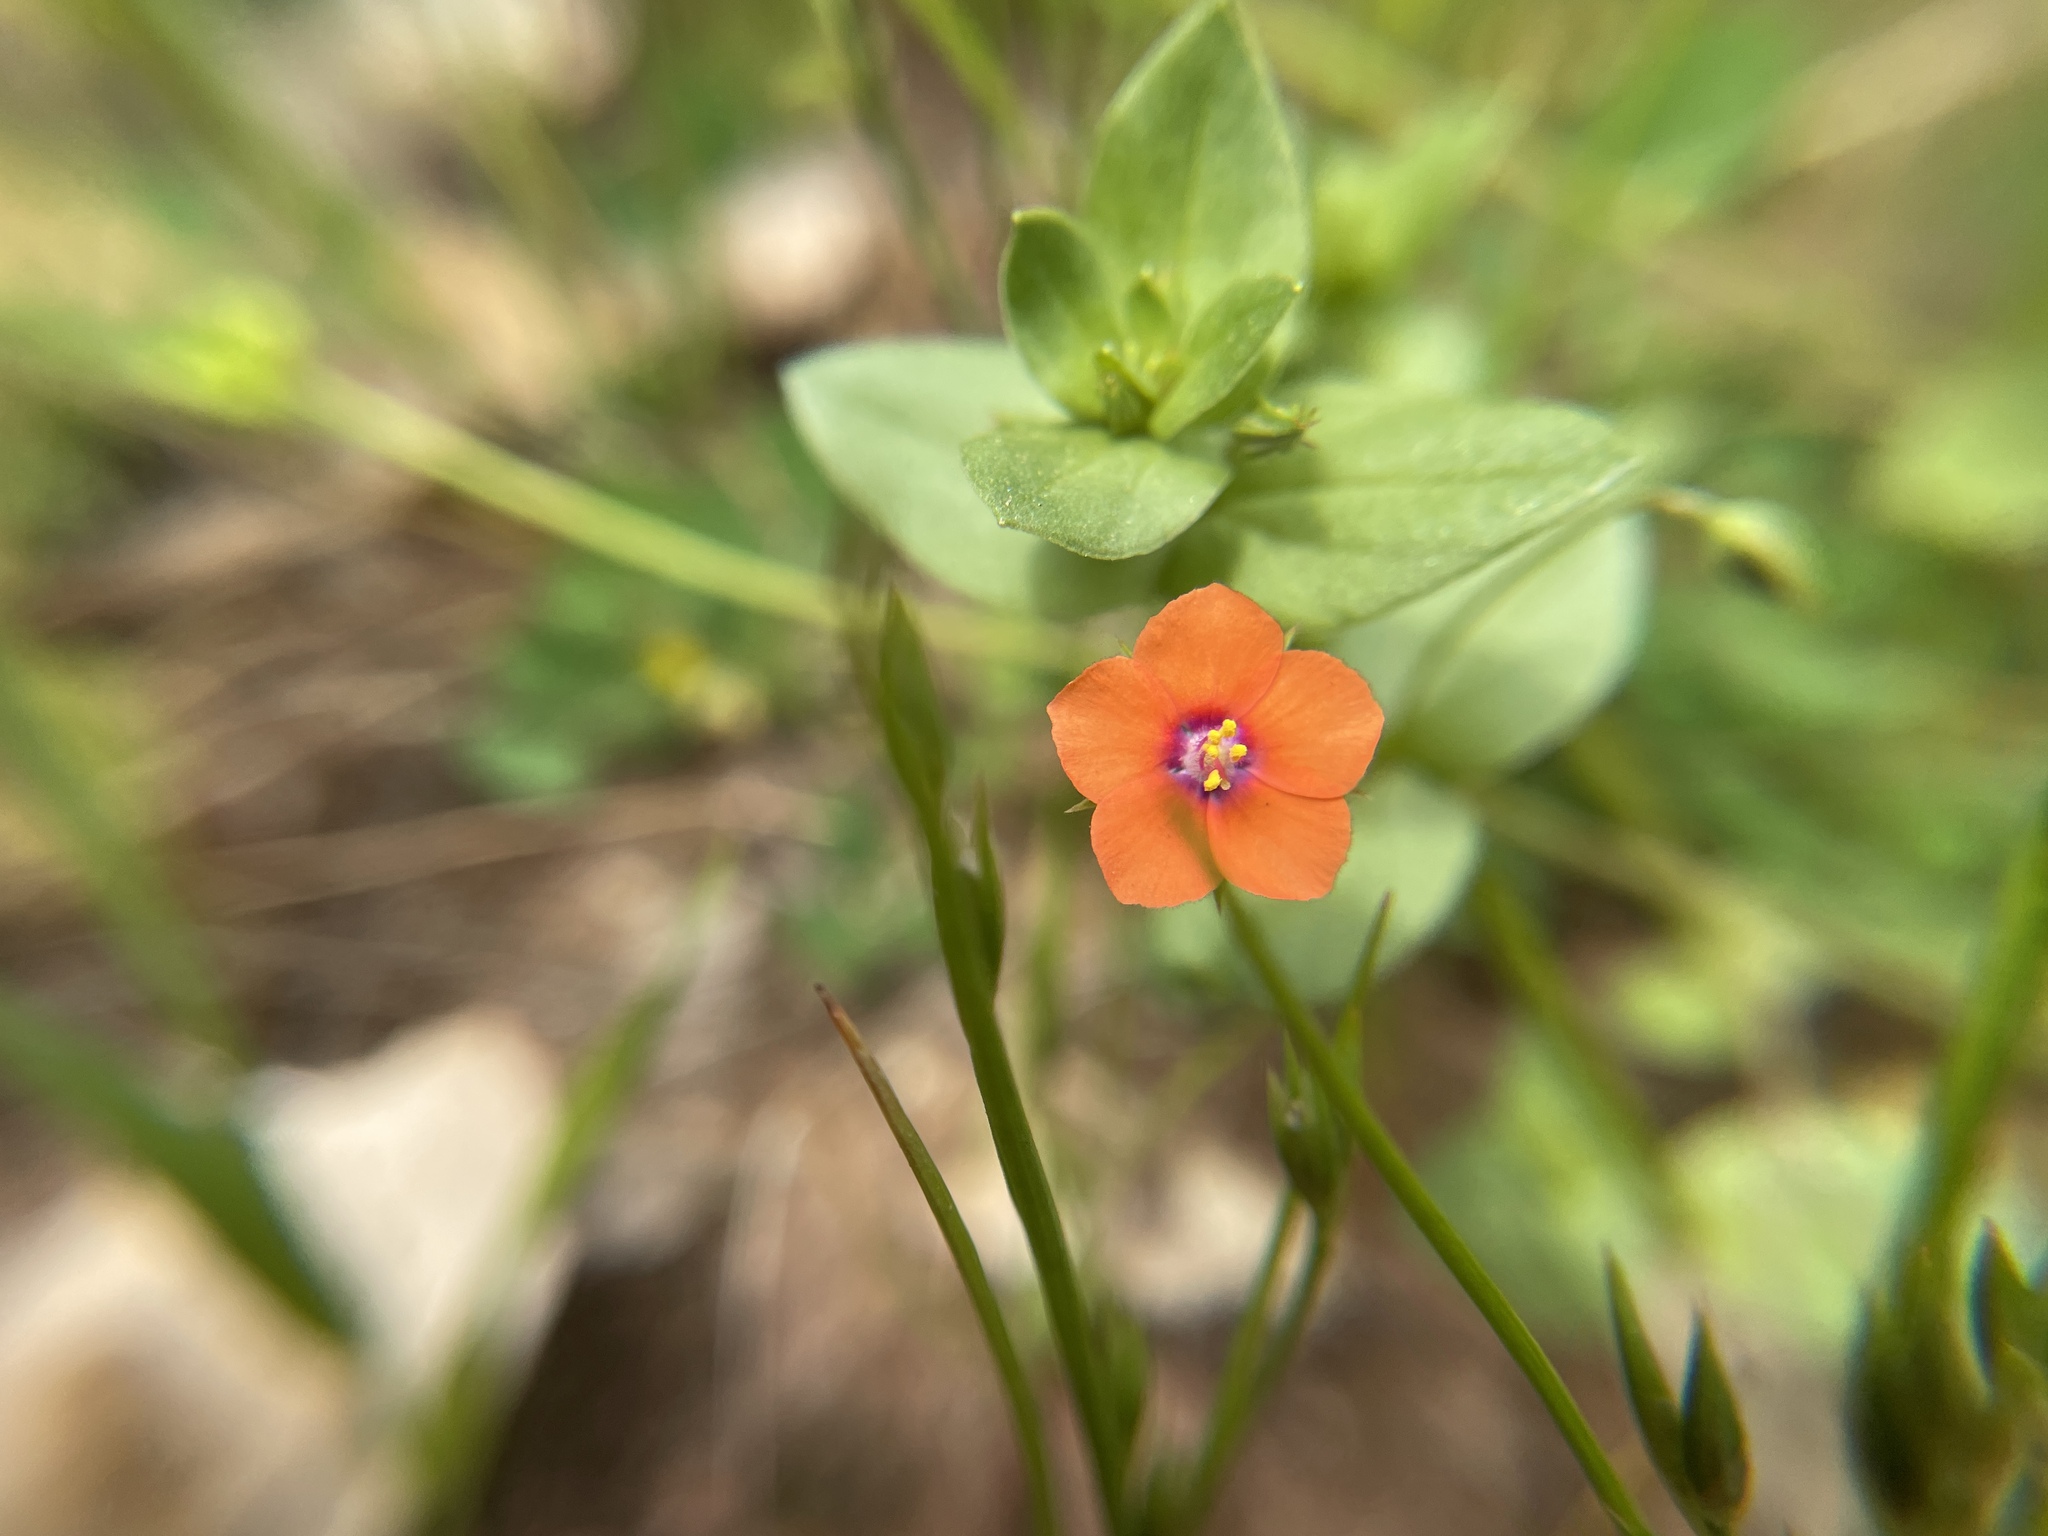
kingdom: Plantae
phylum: Tracheophyta
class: Magnoliopsida
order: Ericales
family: Primulaceae
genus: Lysimachia
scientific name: Lysimachia arvensis
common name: Scarlet pimpernel
